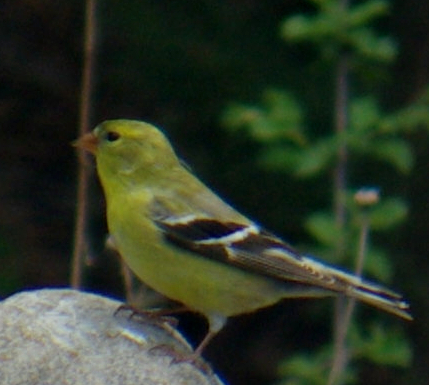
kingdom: Animalia
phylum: Chordata
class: Aves
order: Passeriformes
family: Fringillidae
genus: Spinus
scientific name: Spinus tristis
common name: American goldfinch
